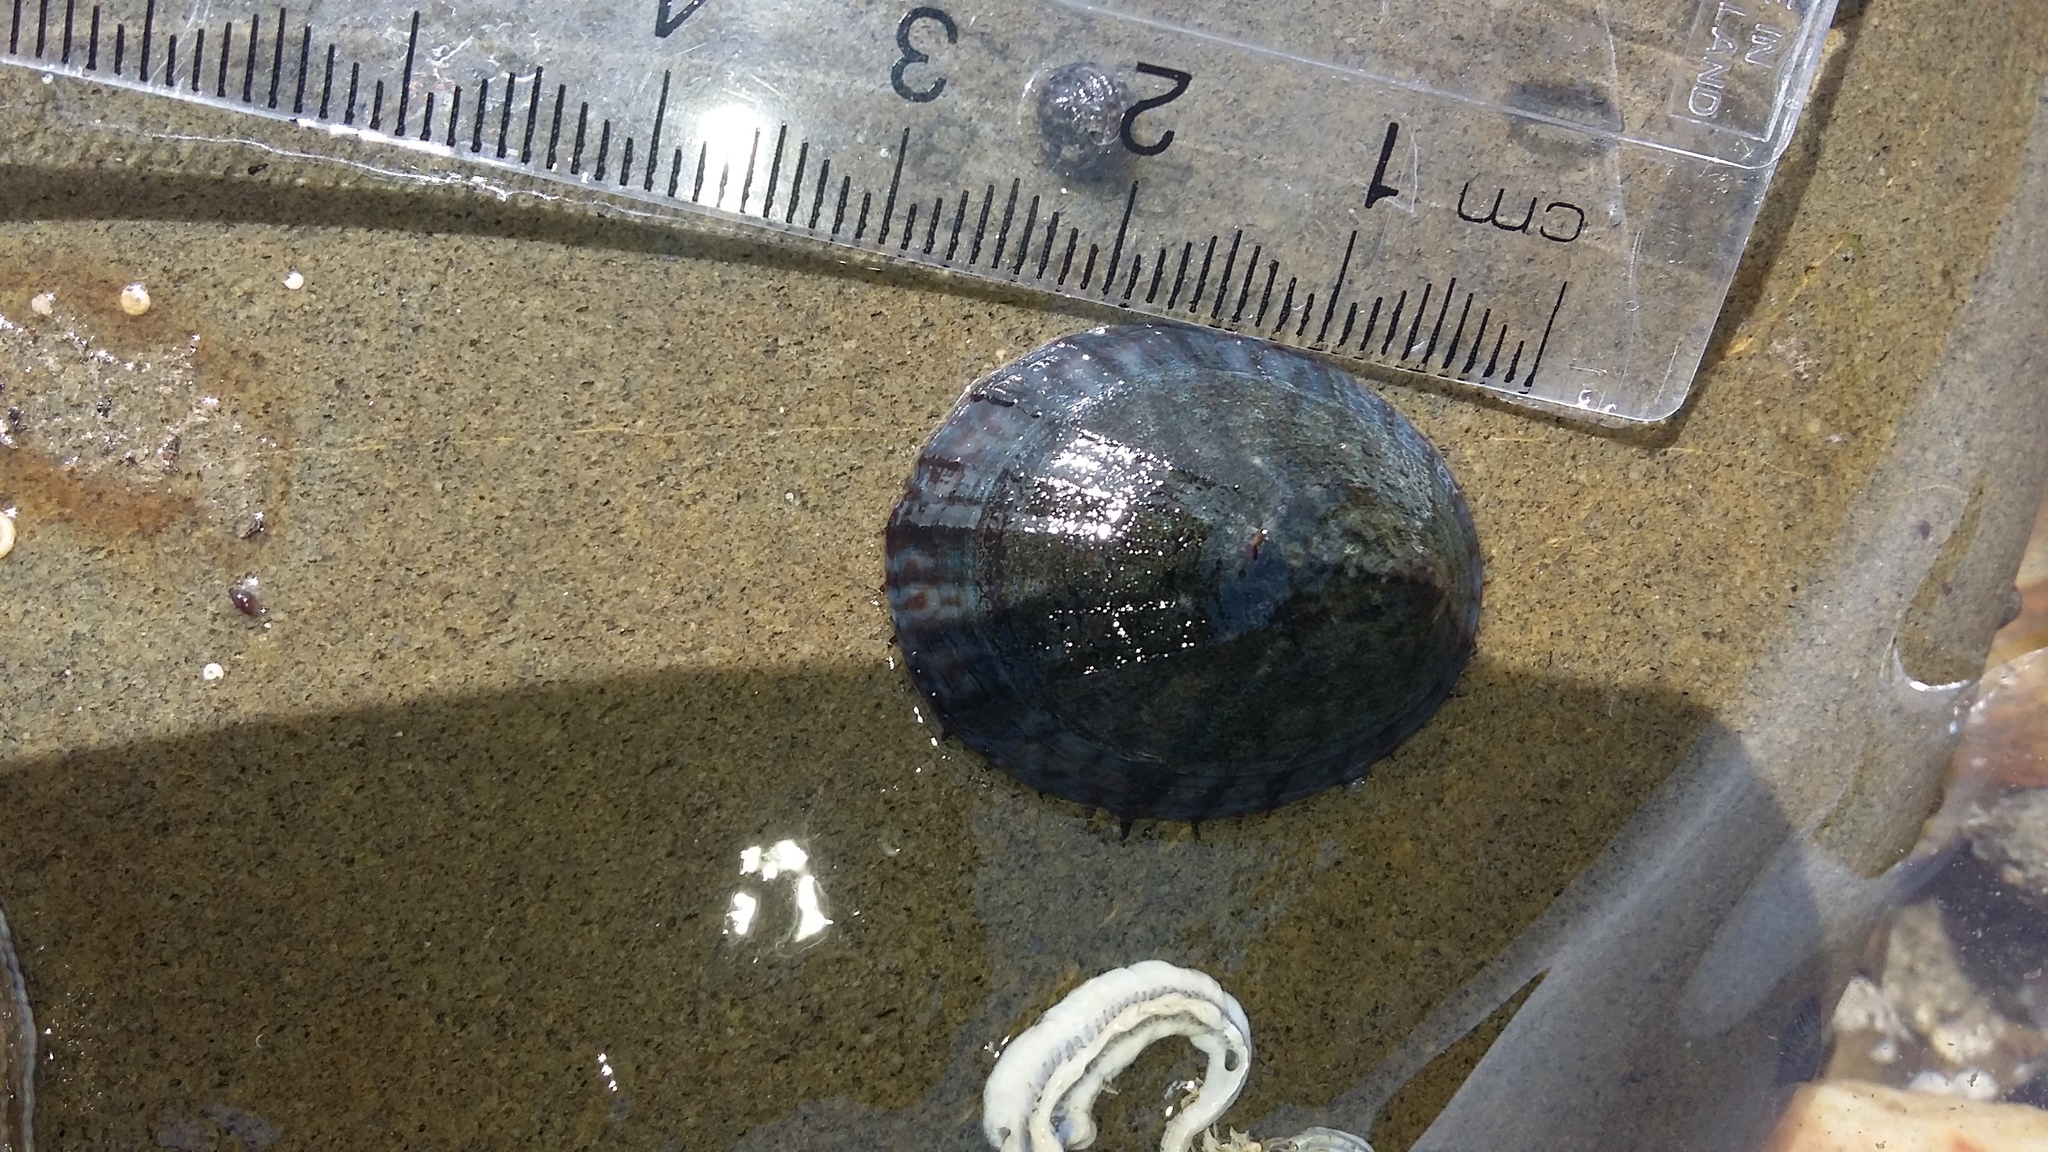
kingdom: Animalia
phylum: Mollusca
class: Gastropoda
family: Nacellidae
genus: Cellana
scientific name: Cellana radians
